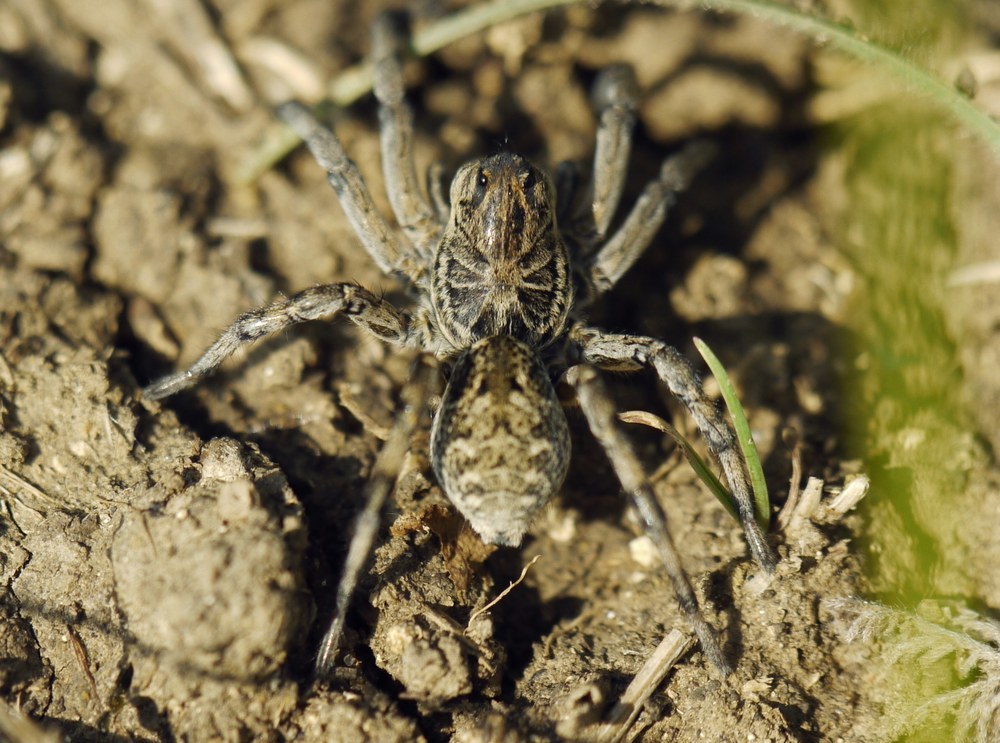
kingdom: Animalia
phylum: Arthropoda
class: Arachnida
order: Araneae
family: Lycosidae
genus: Geolycosa
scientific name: Geolycosa vultuosa
